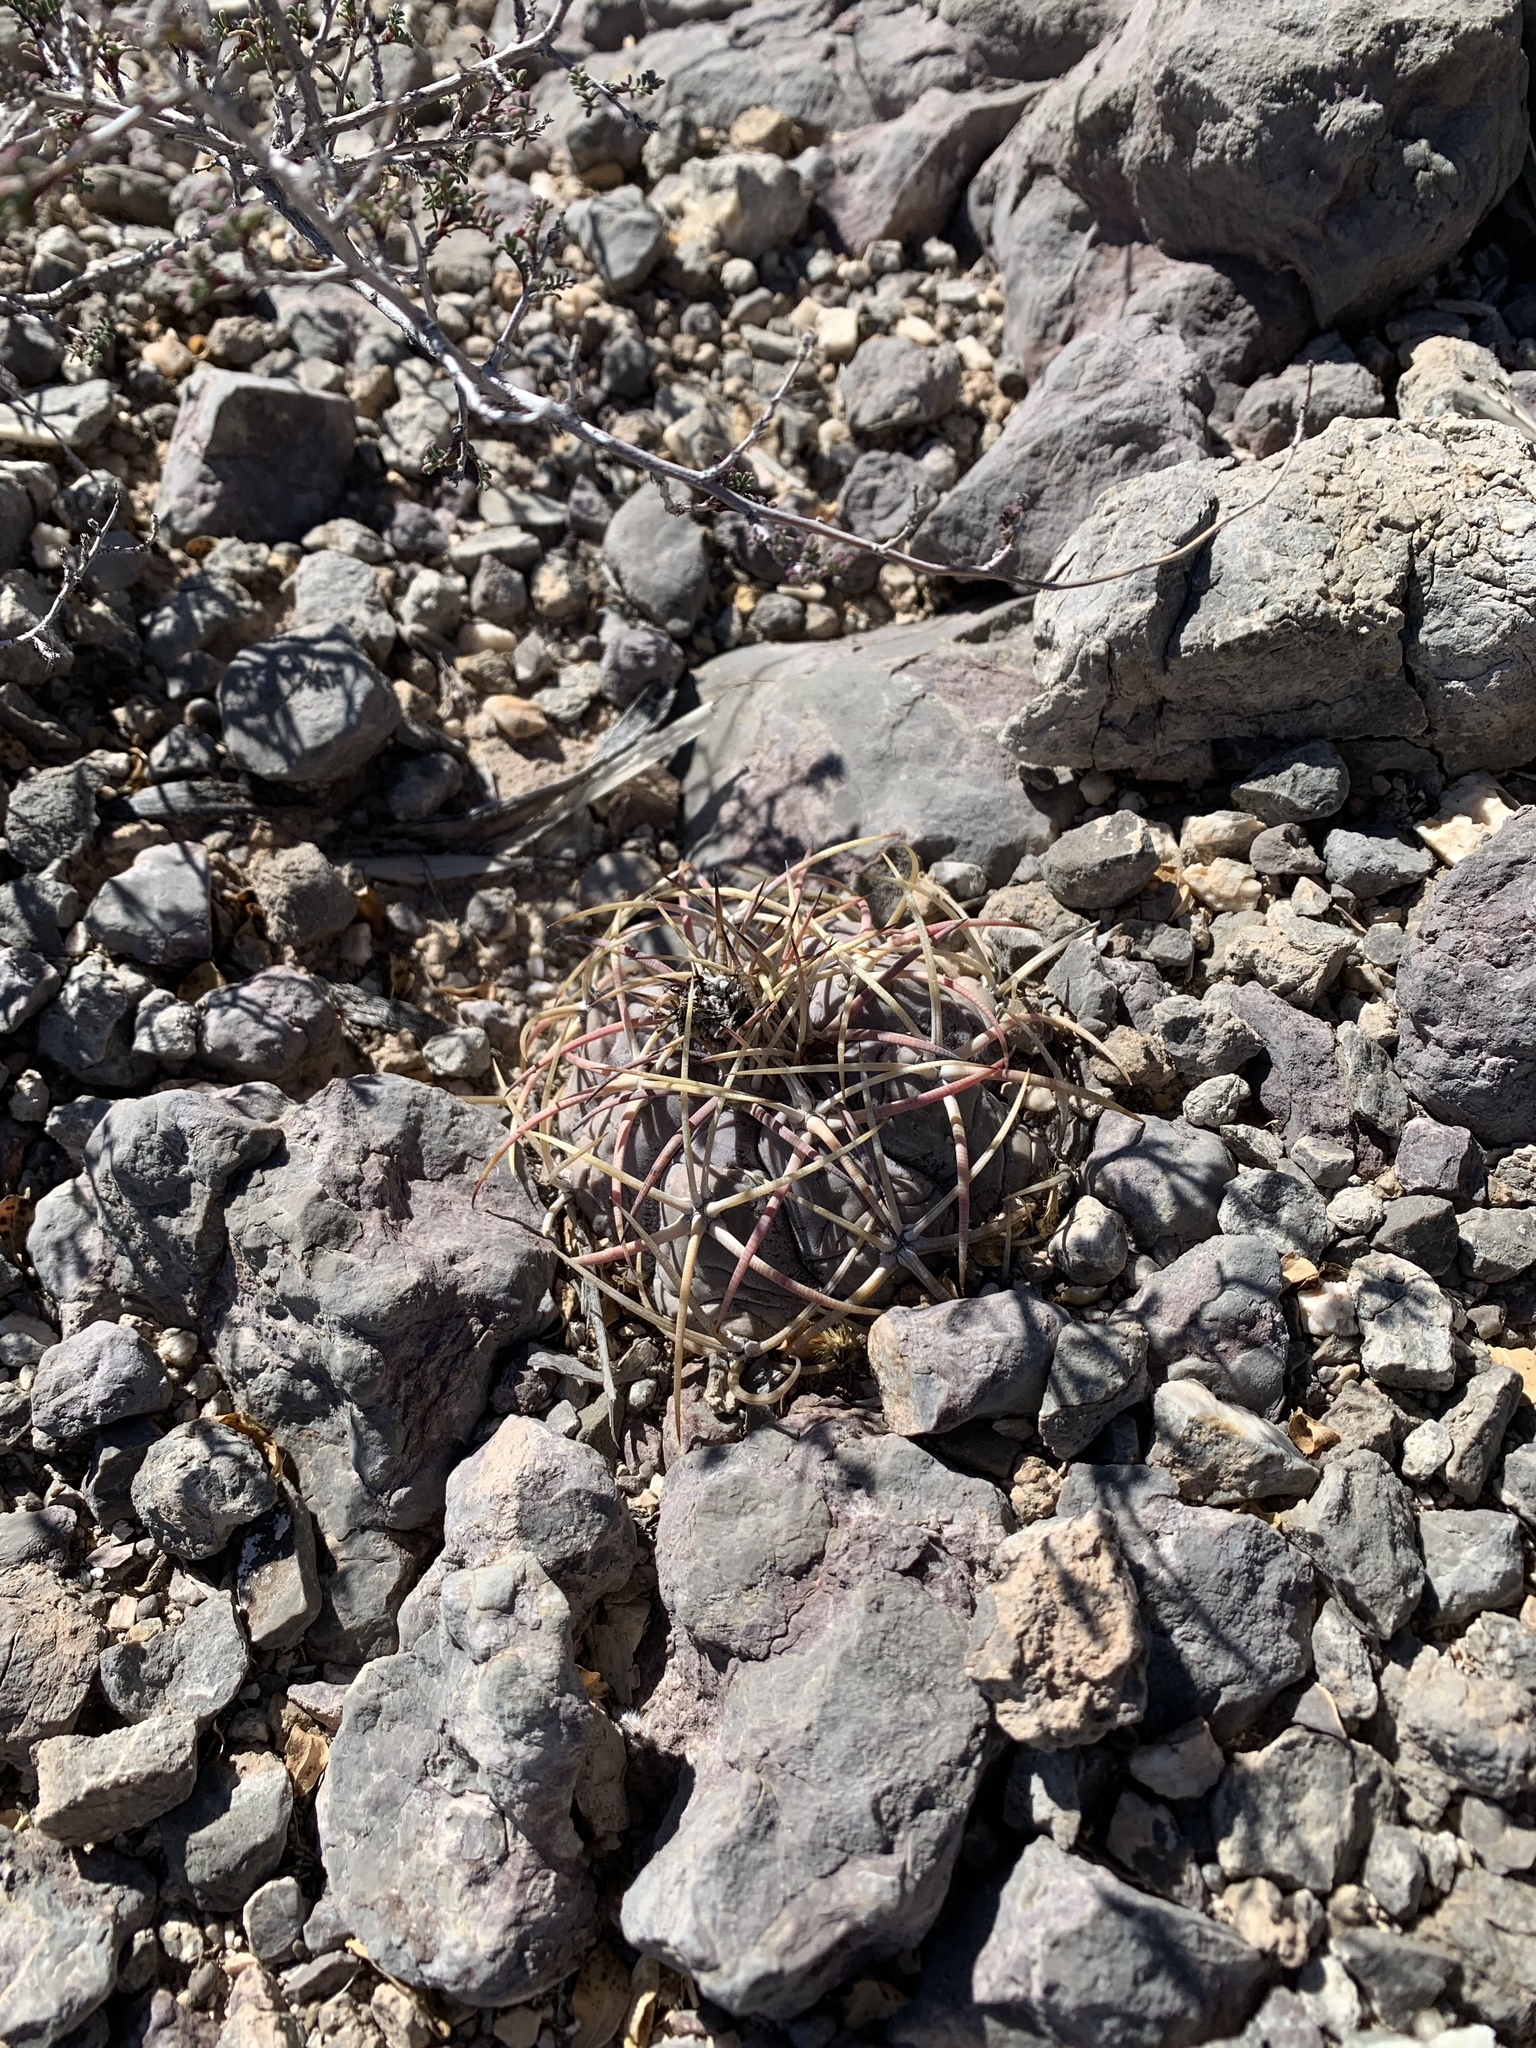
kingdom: Plantae
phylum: Tracheophyta
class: Magnoliopsida
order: Caryophyllales
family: Cactaceae
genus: Echinocactus
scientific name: Echinocactus horizonthalonius
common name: Devilshead
